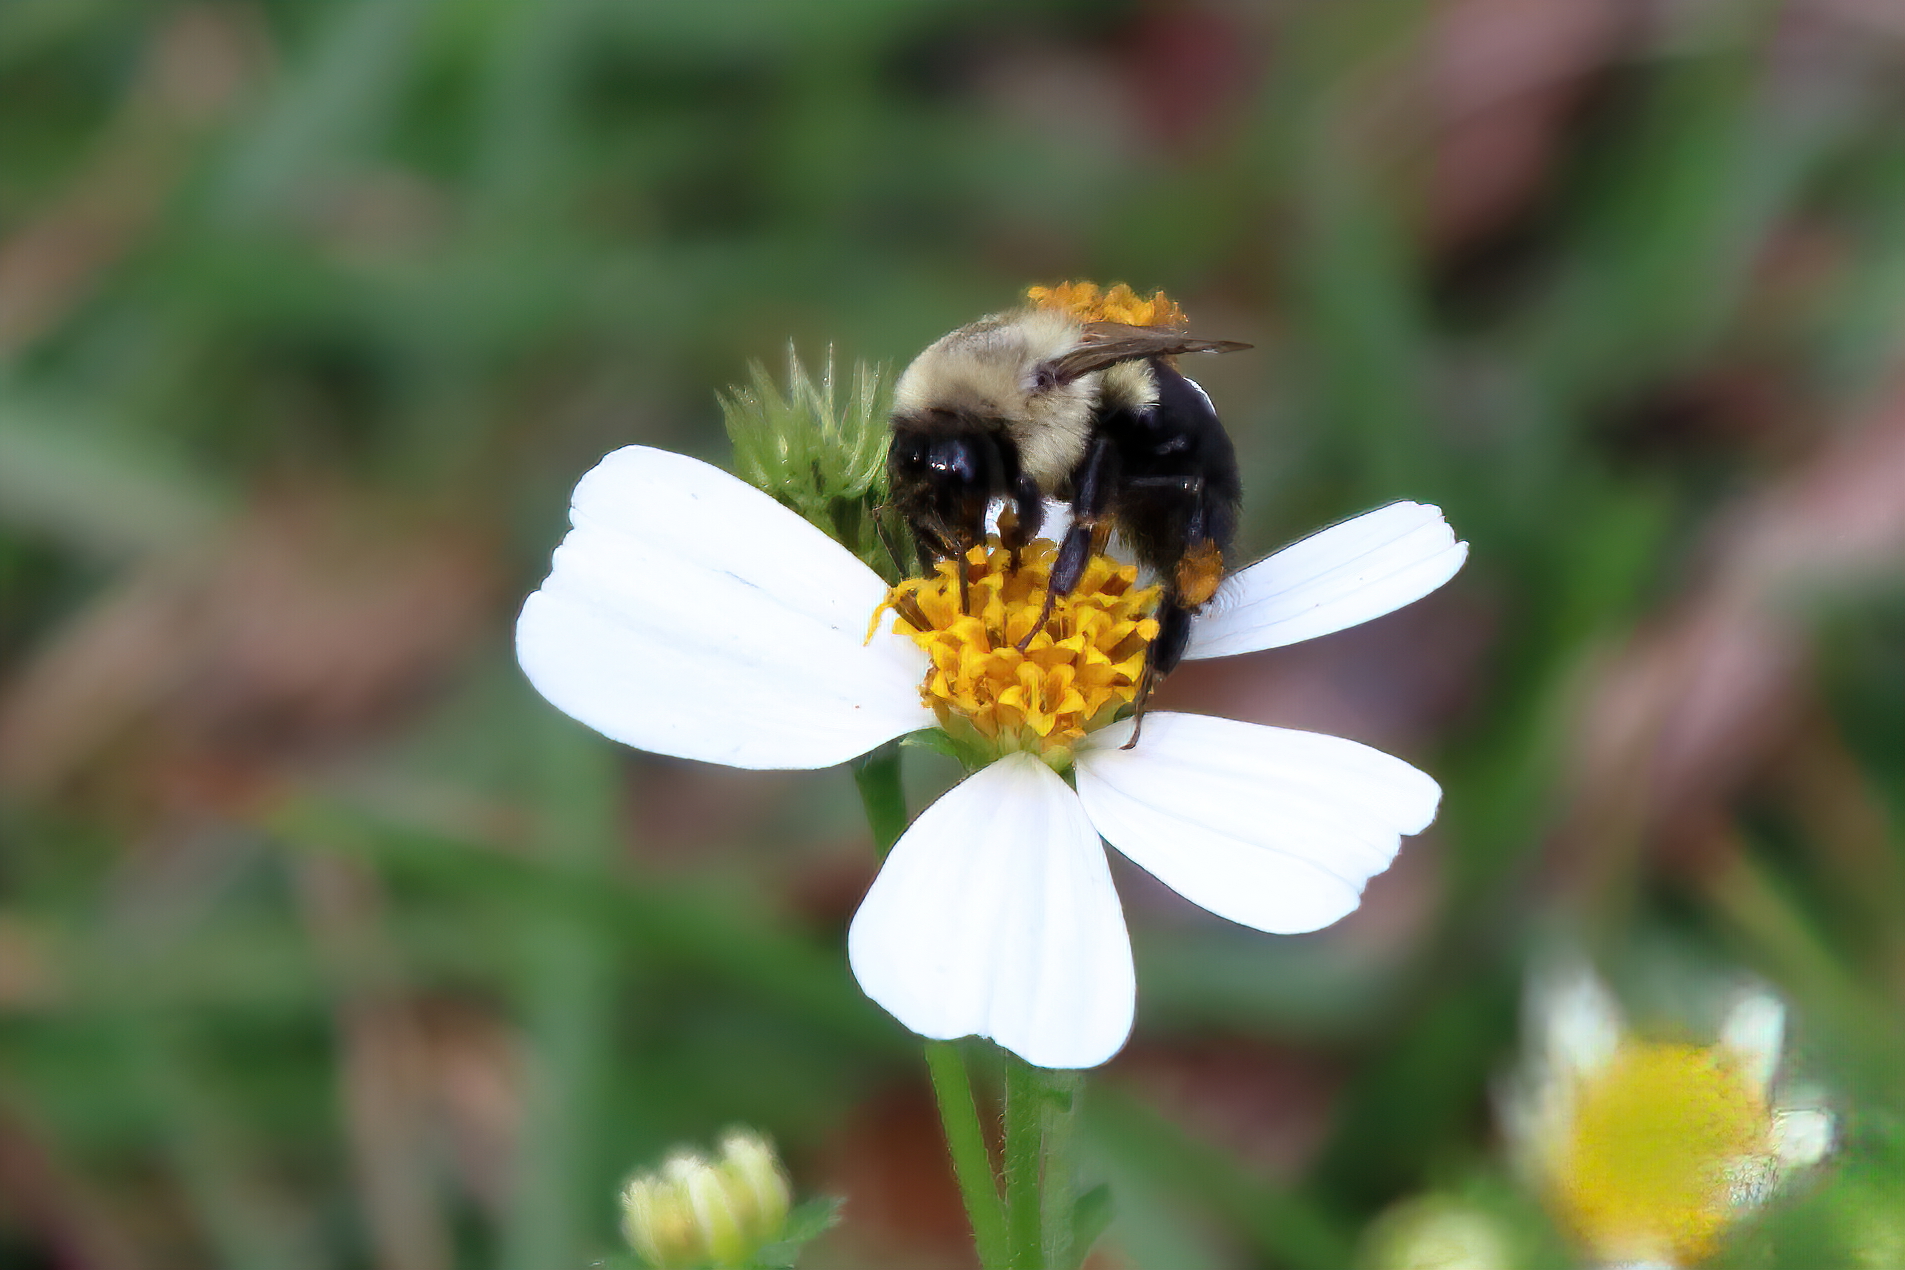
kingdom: Animalia
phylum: Arthropoda
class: Insecta
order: Hymenoptera
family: Apidae
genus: Bombus
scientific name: Bombus impatiens
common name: Common eastern bumble bee
